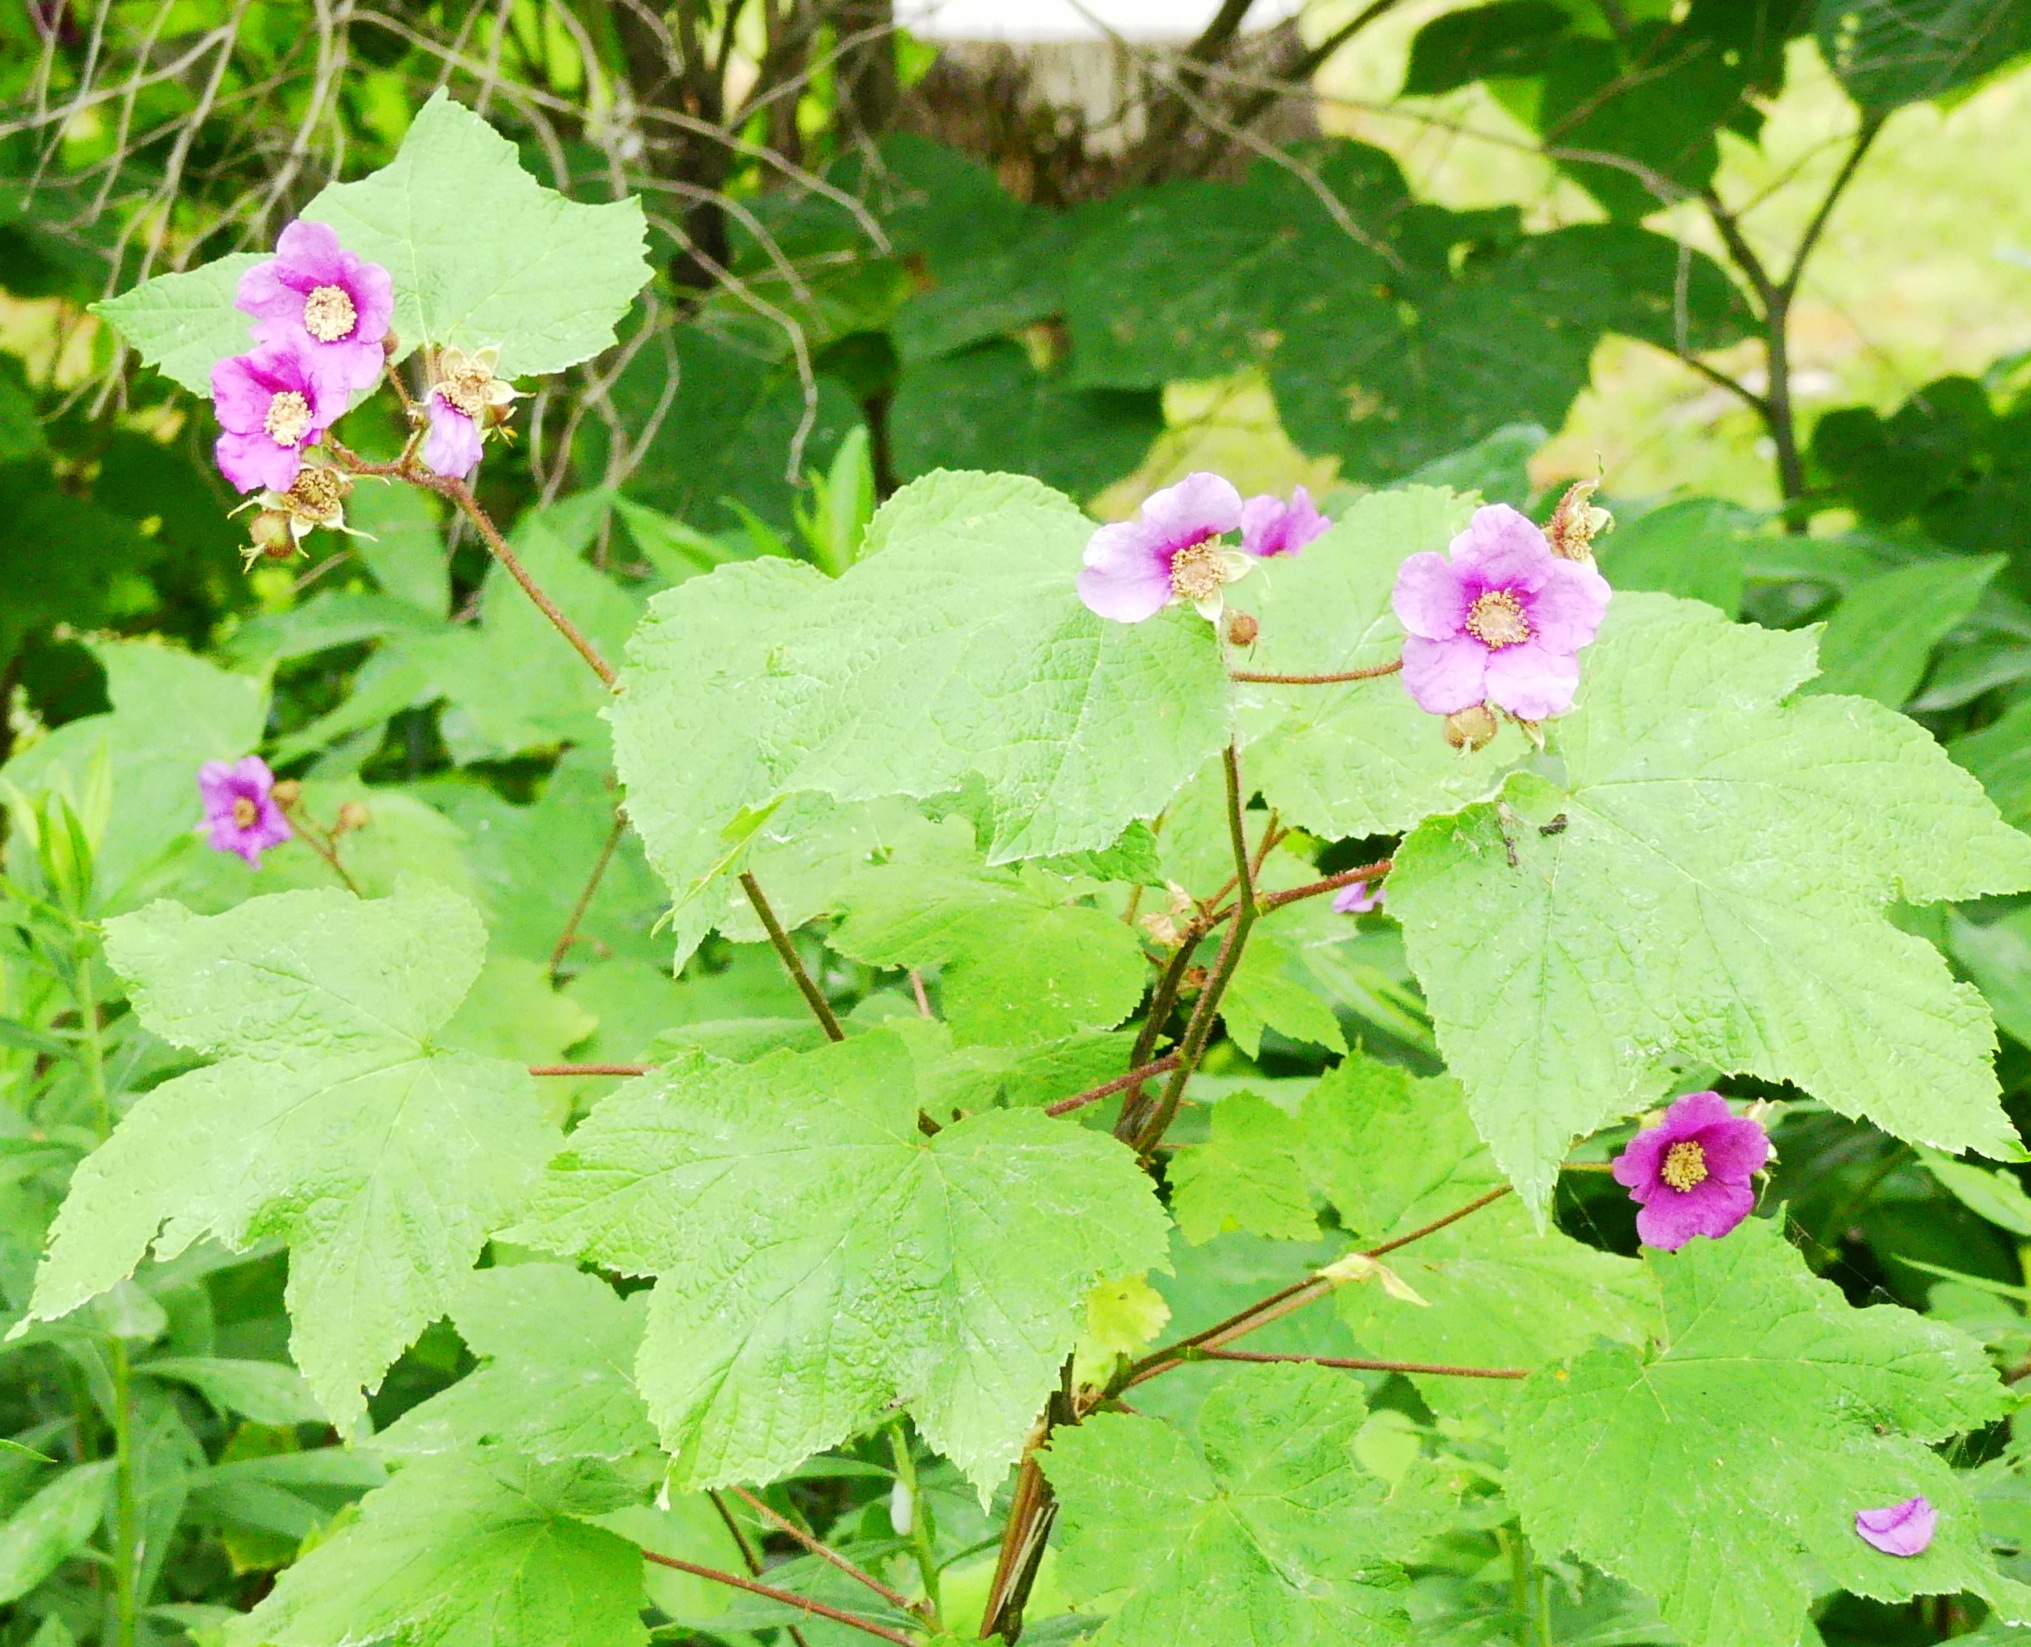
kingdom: Plantae
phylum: Tracheophyta
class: Magnoliopsida
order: Rosales
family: Rosaceae
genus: Rubus
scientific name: Rubus odoratus
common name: Purple-flowered raspberry
